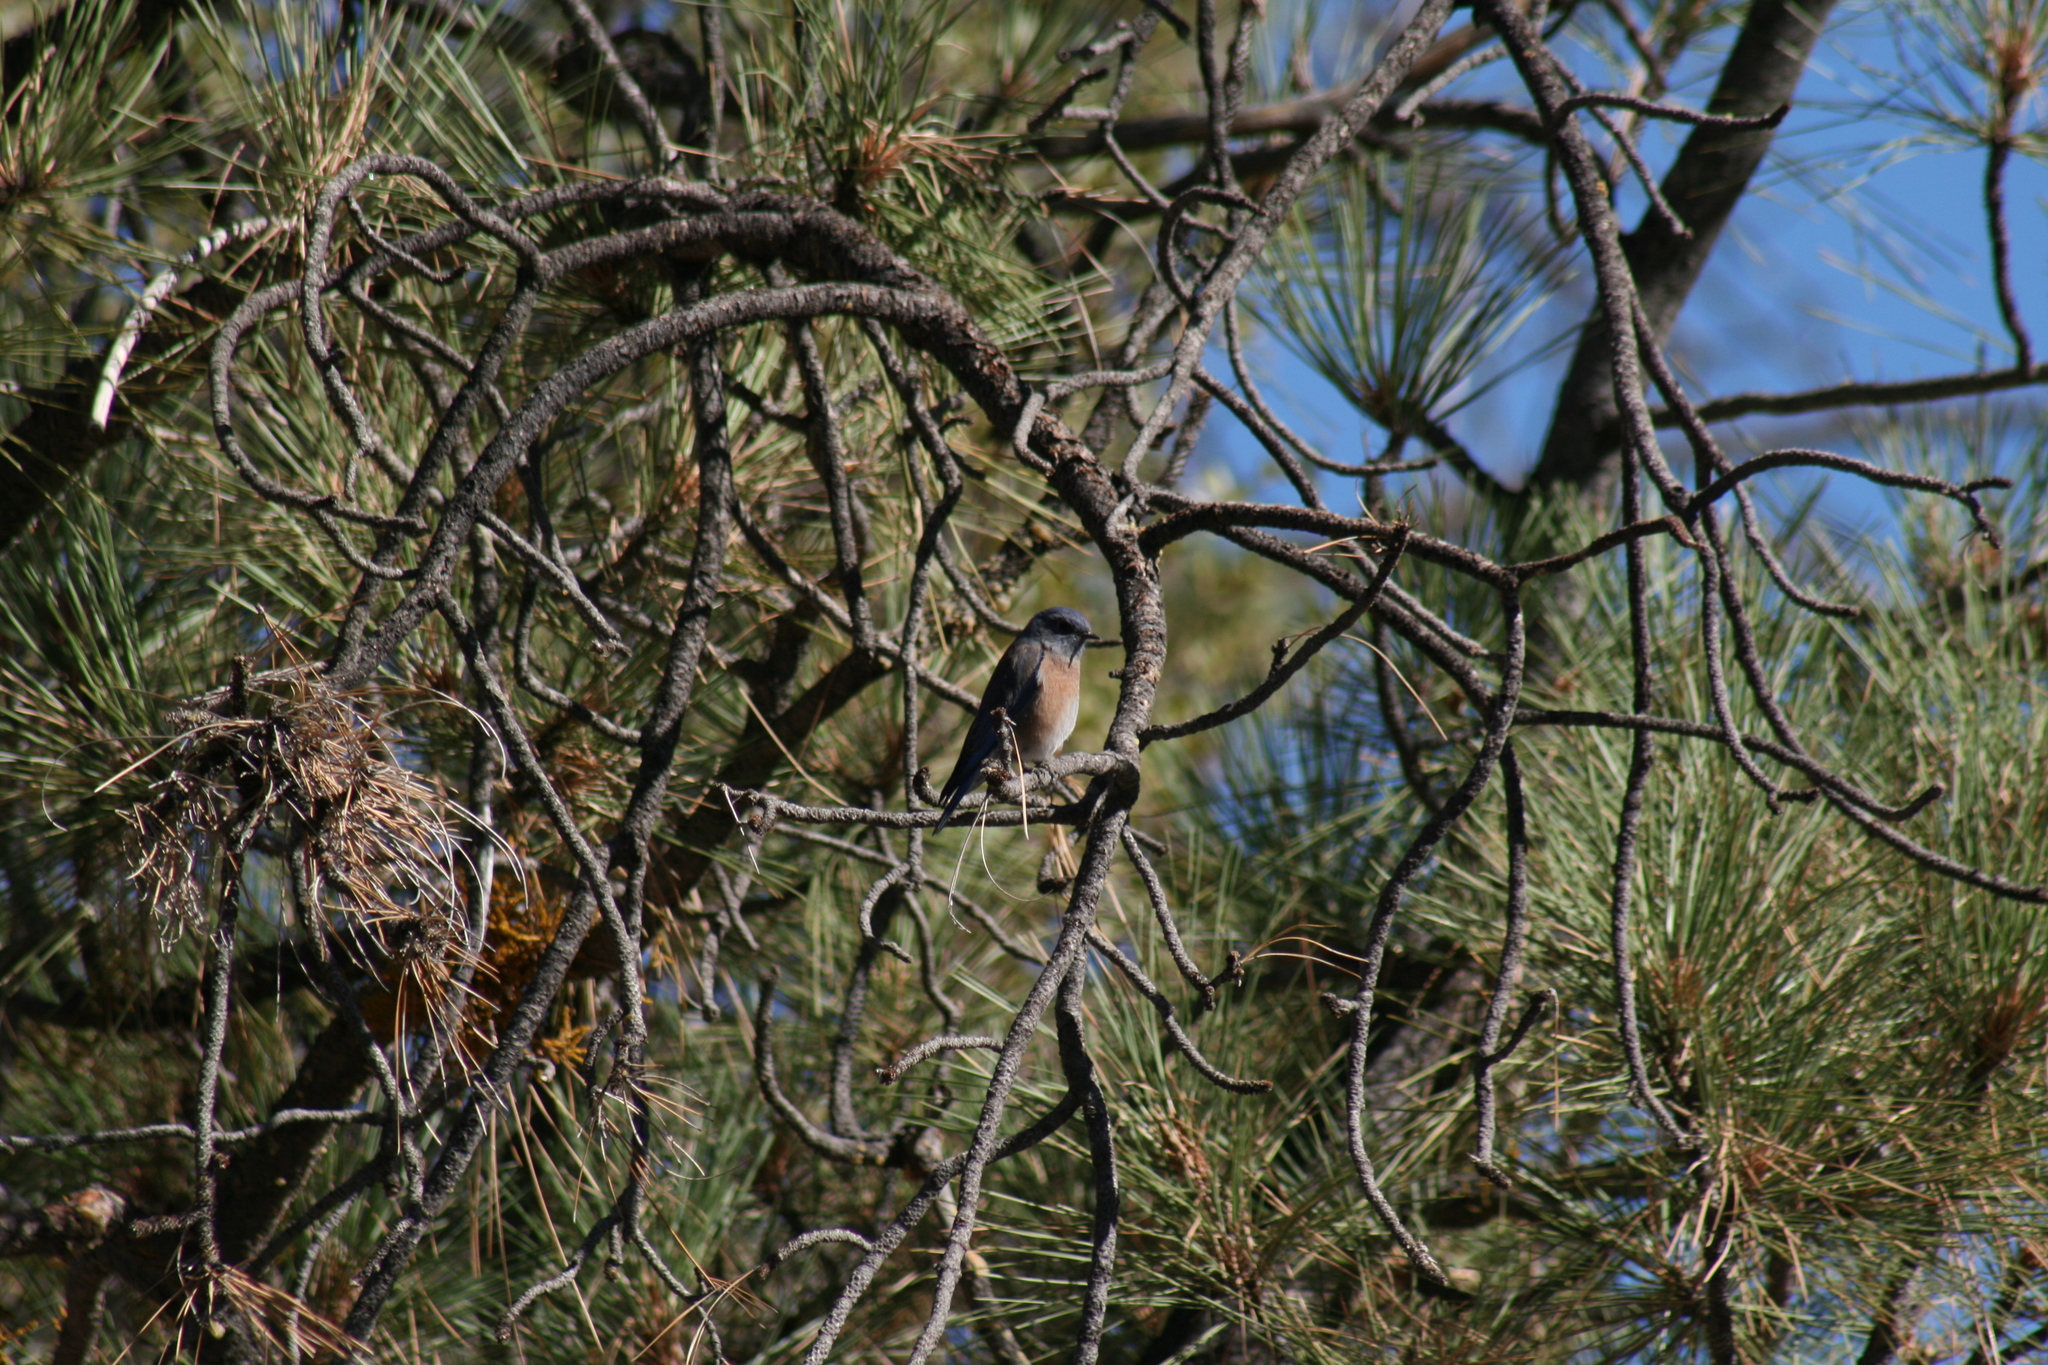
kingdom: Animalia
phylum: Chordata
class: Aves
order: Passeriformes
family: Turdidae
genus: Sialia
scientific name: Sialia mexicana
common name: Western bluebird
